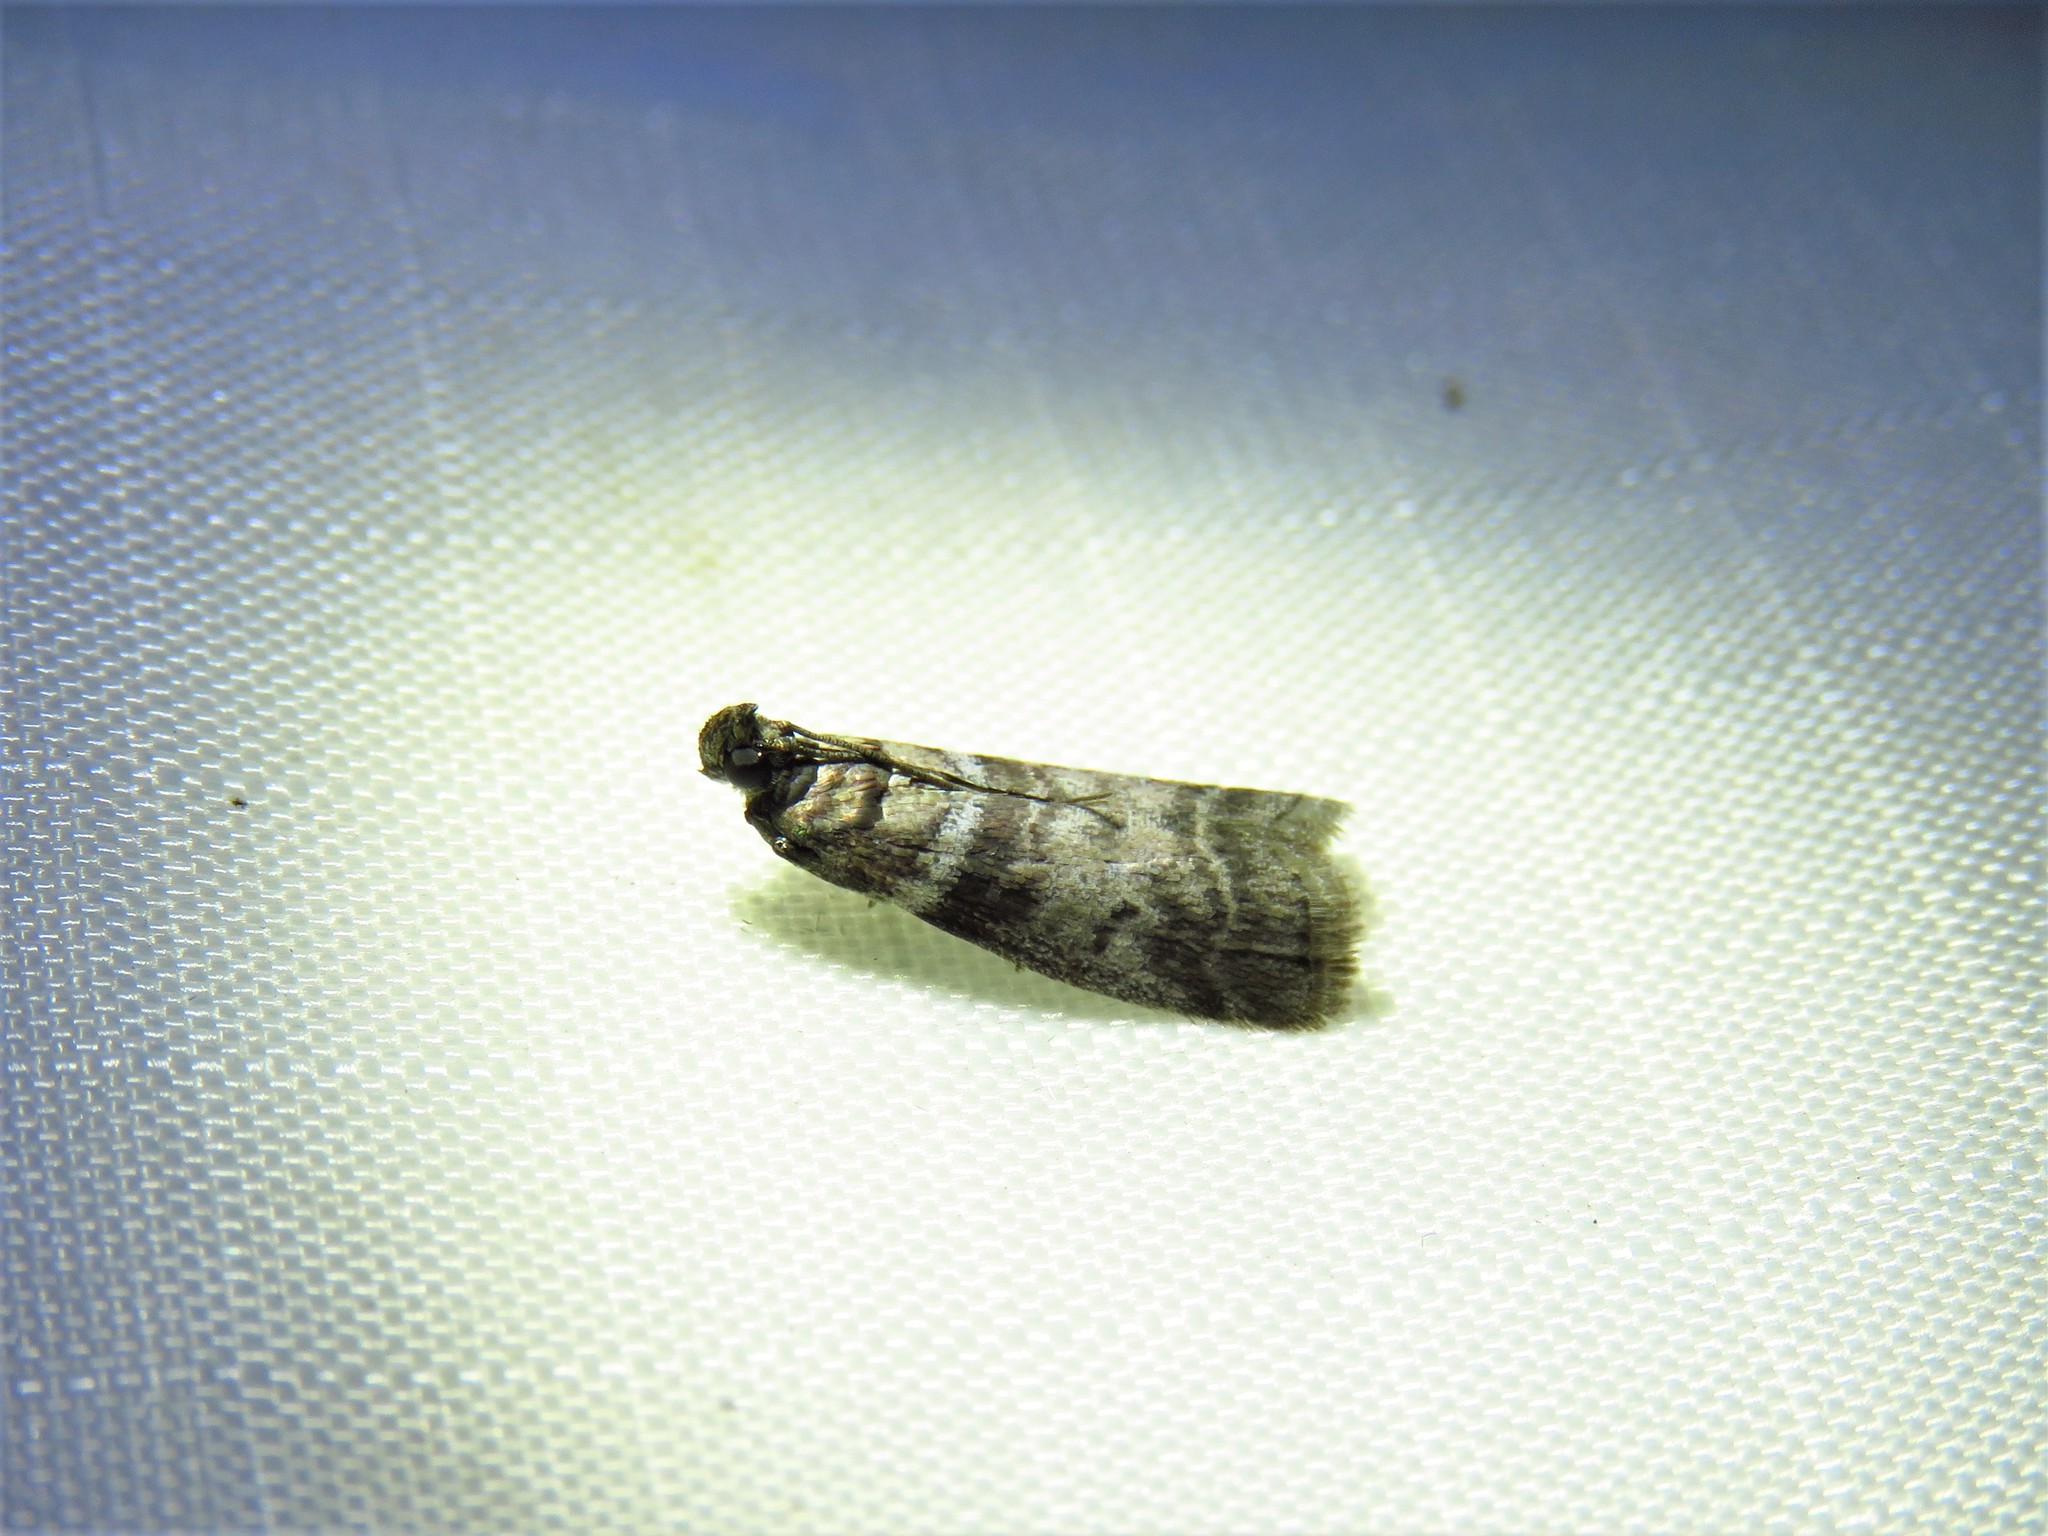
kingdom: Animalia
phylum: Arthropoda
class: Insecta
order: Lepidoptera
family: Pyralidae
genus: Sciota
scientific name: Sciota uvinella
